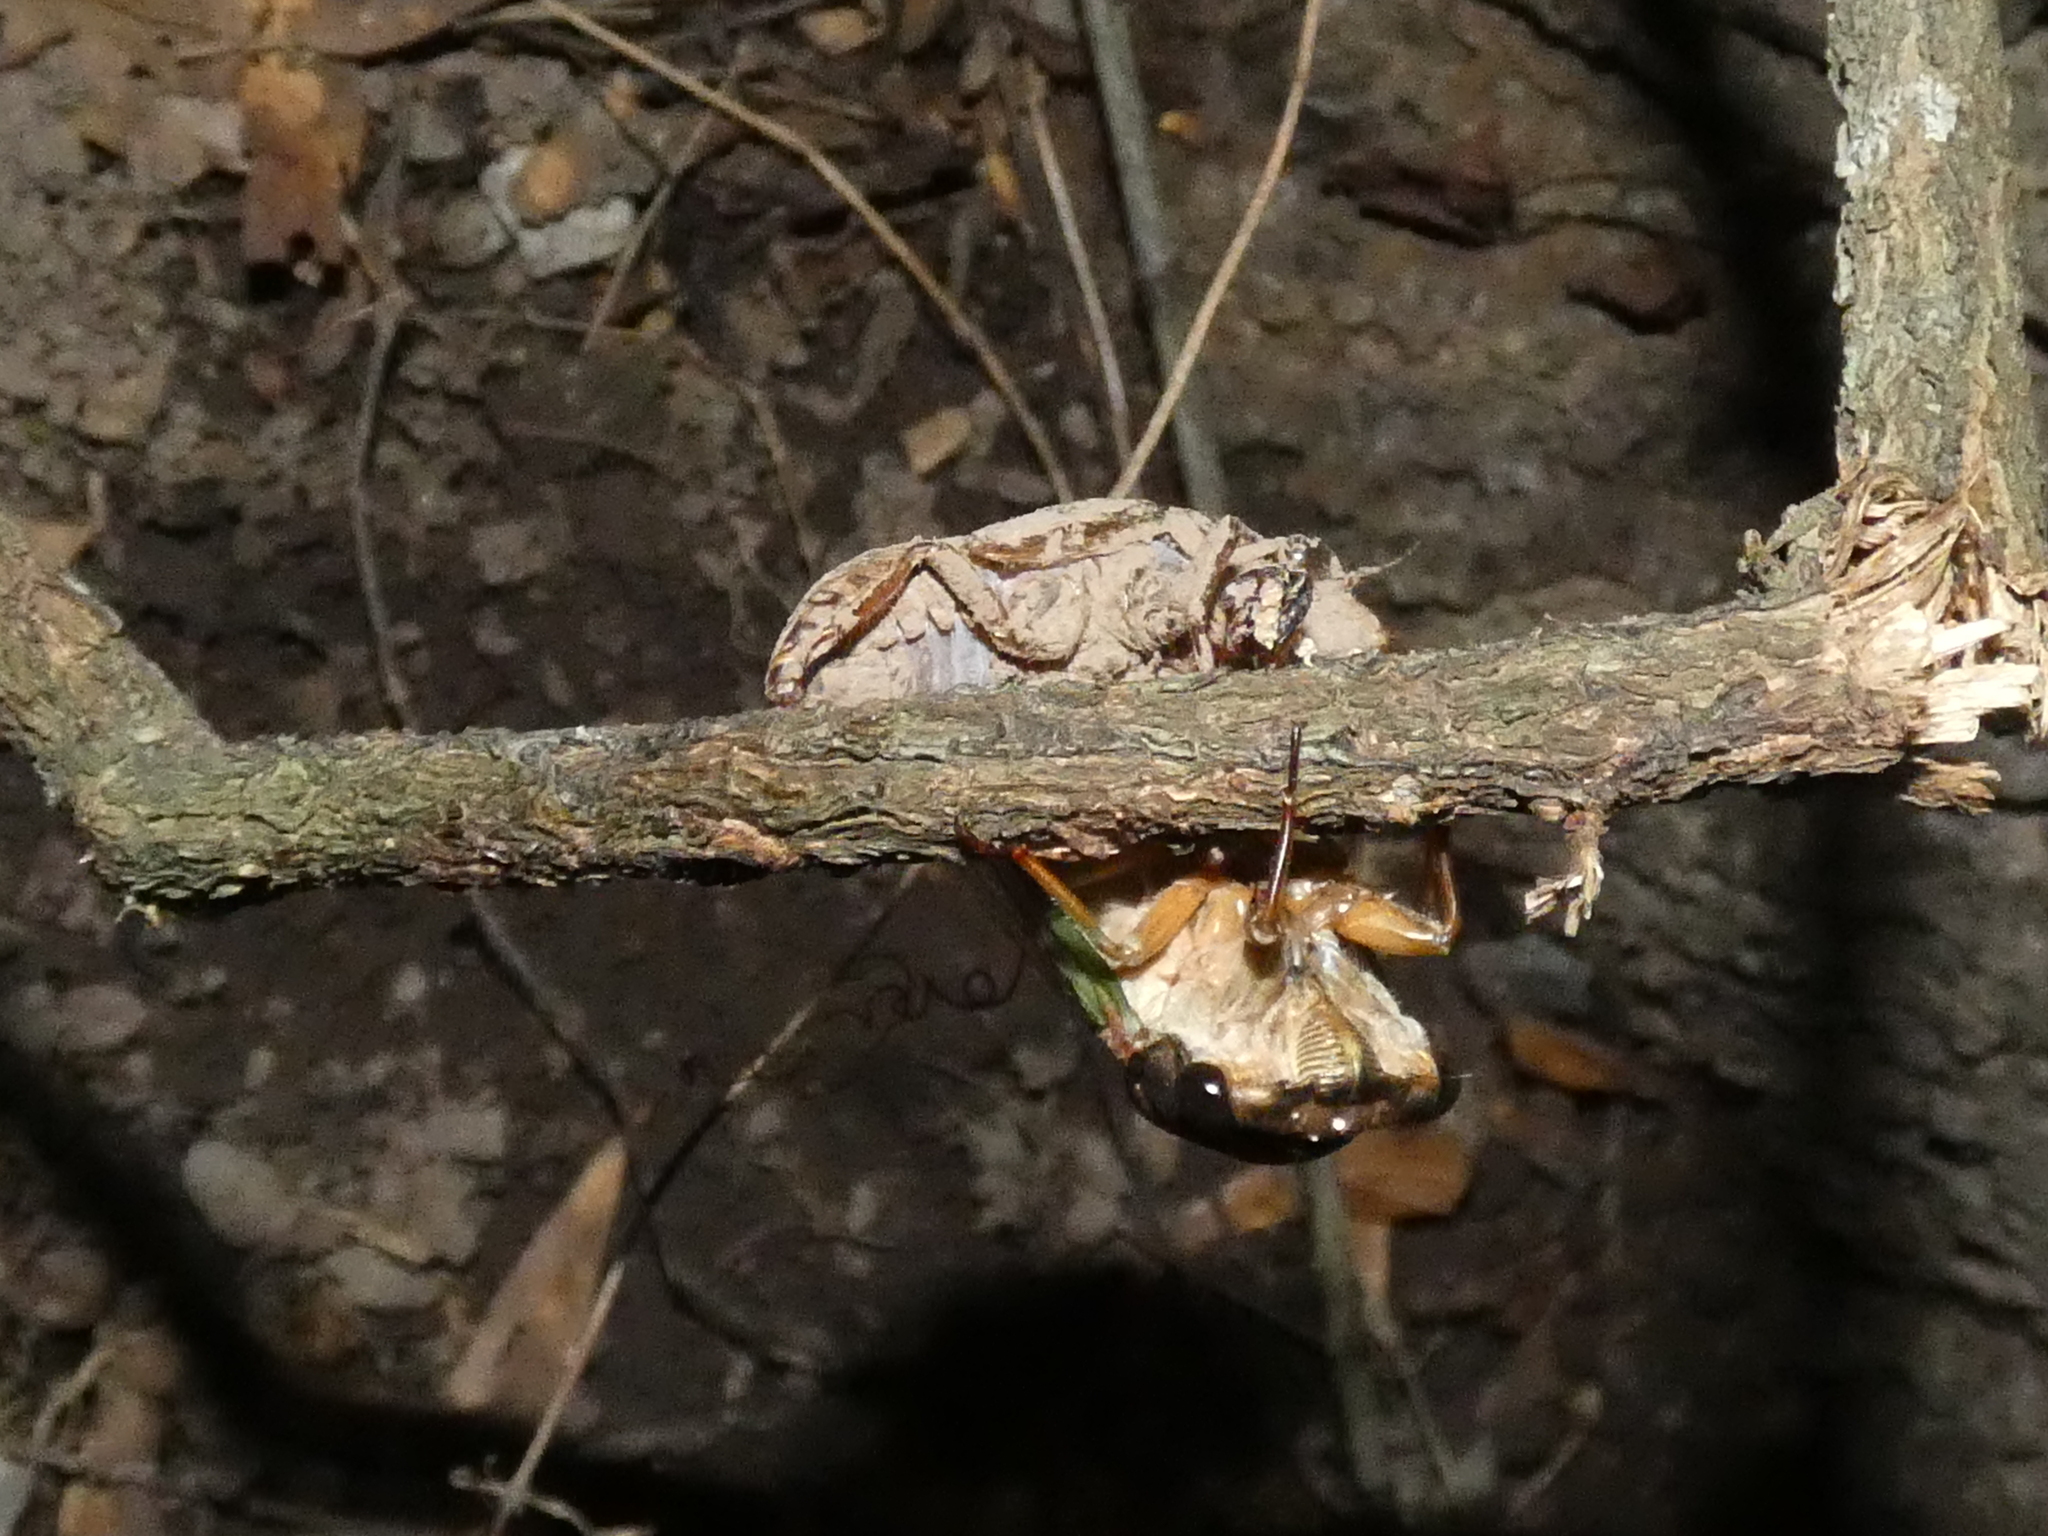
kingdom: Animalia
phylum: Arthropoda
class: Insecta
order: Hemiptera
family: Cicadidae
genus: Neotibicen
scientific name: Neotibicen lyricen
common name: Lyric cicada
